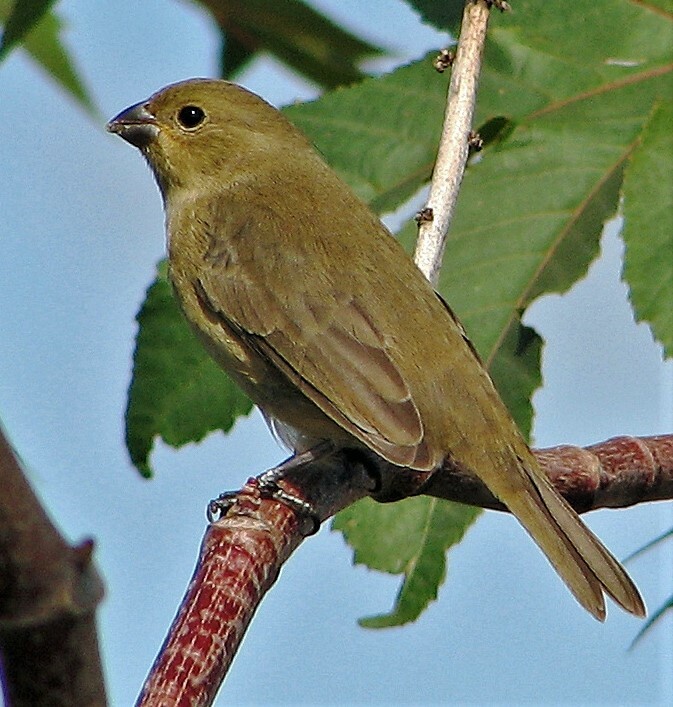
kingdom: Animalia
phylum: Chordata
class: Aves
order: Passeriformes
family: Thraupidae
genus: Sporophila
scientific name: Sporophila caerulescens
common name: Double-collared seedeater
